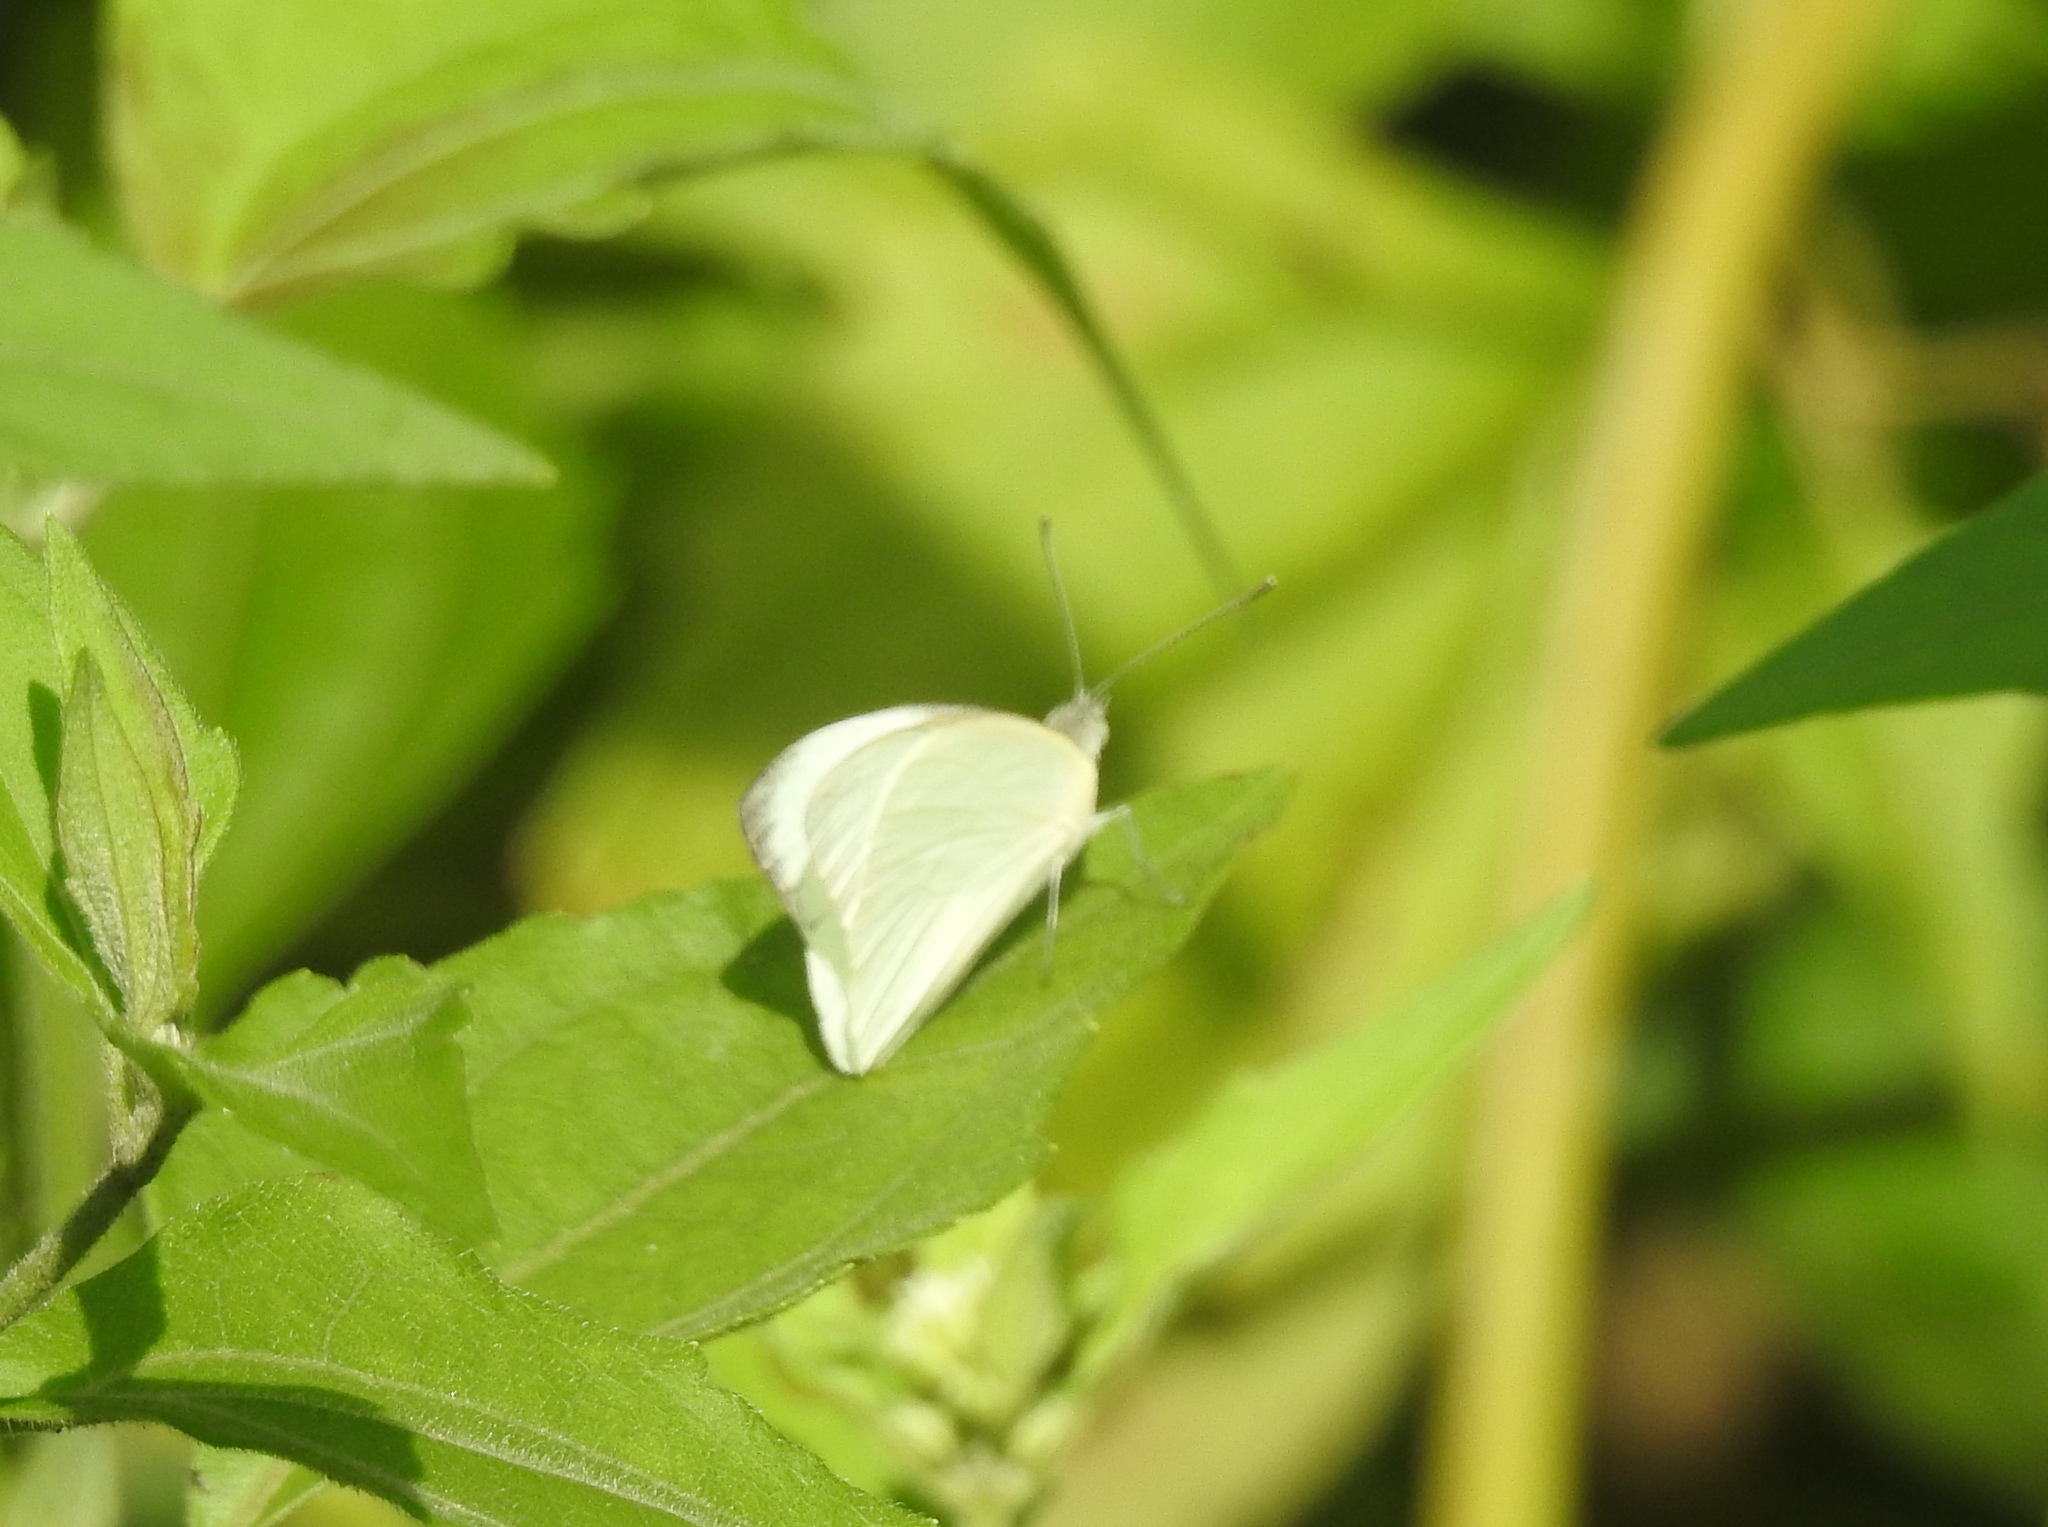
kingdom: Animalia
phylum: Arthropoda
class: Insecta
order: Lepidoptera
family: Pieridae
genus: Appias
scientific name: Appias albina
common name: Common albatross
